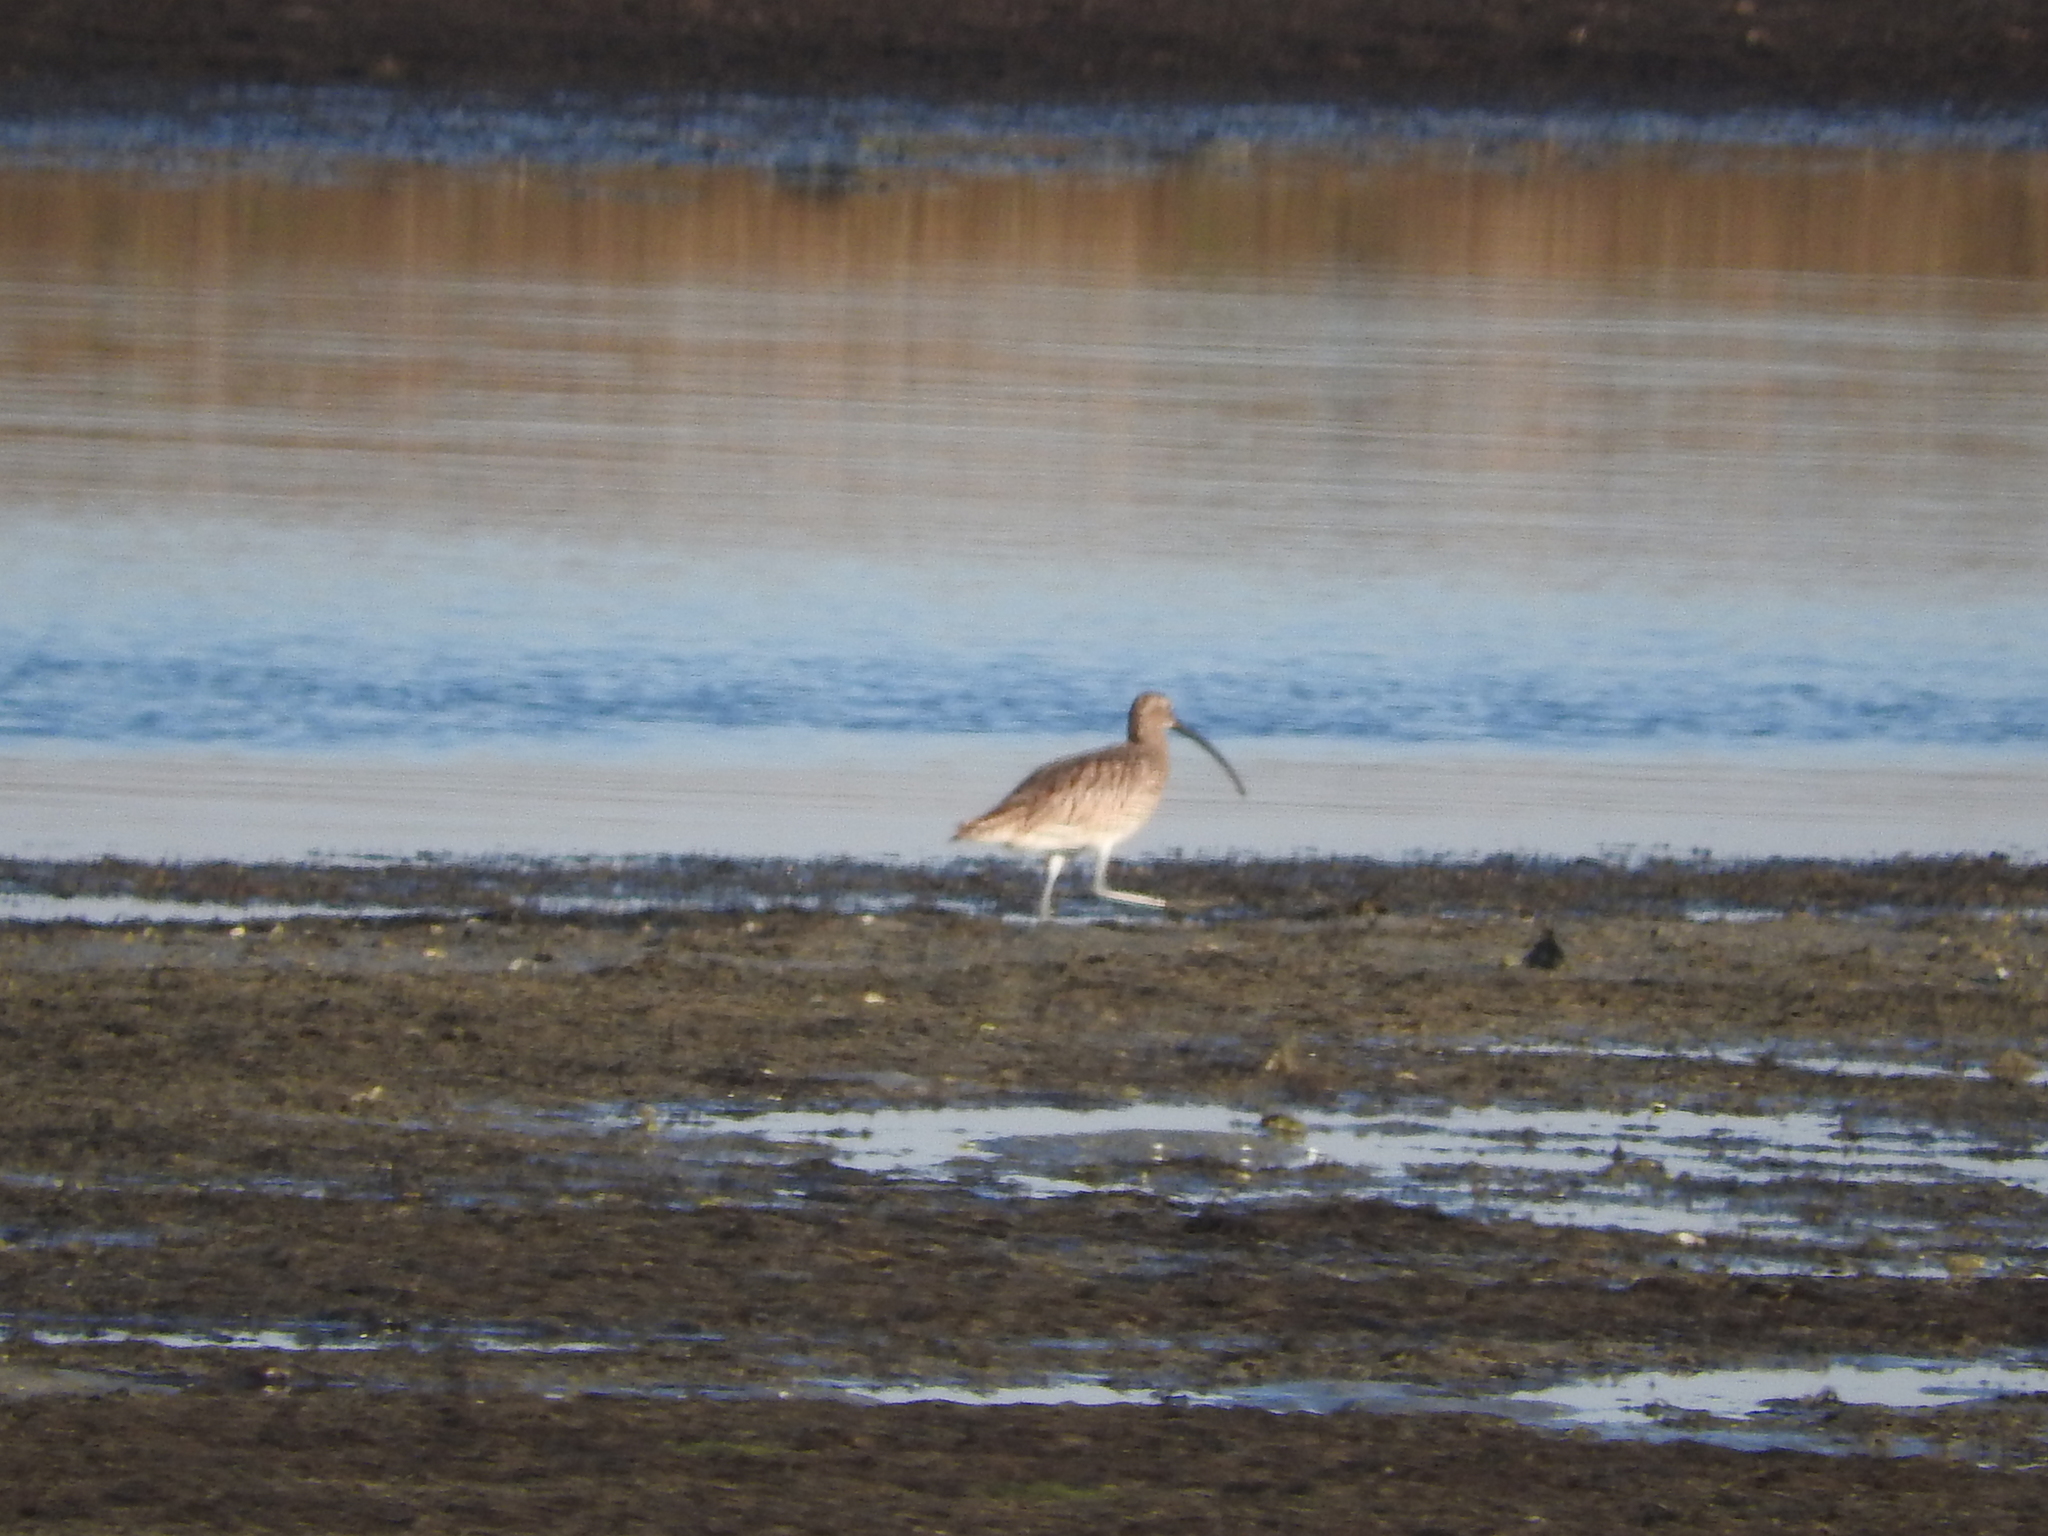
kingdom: Animalia
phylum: Chordata
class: Aves
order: Charadriiformes
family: Scolopacidae
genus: Numenius
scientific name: Numenius arquata
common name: Eurasian curlew
